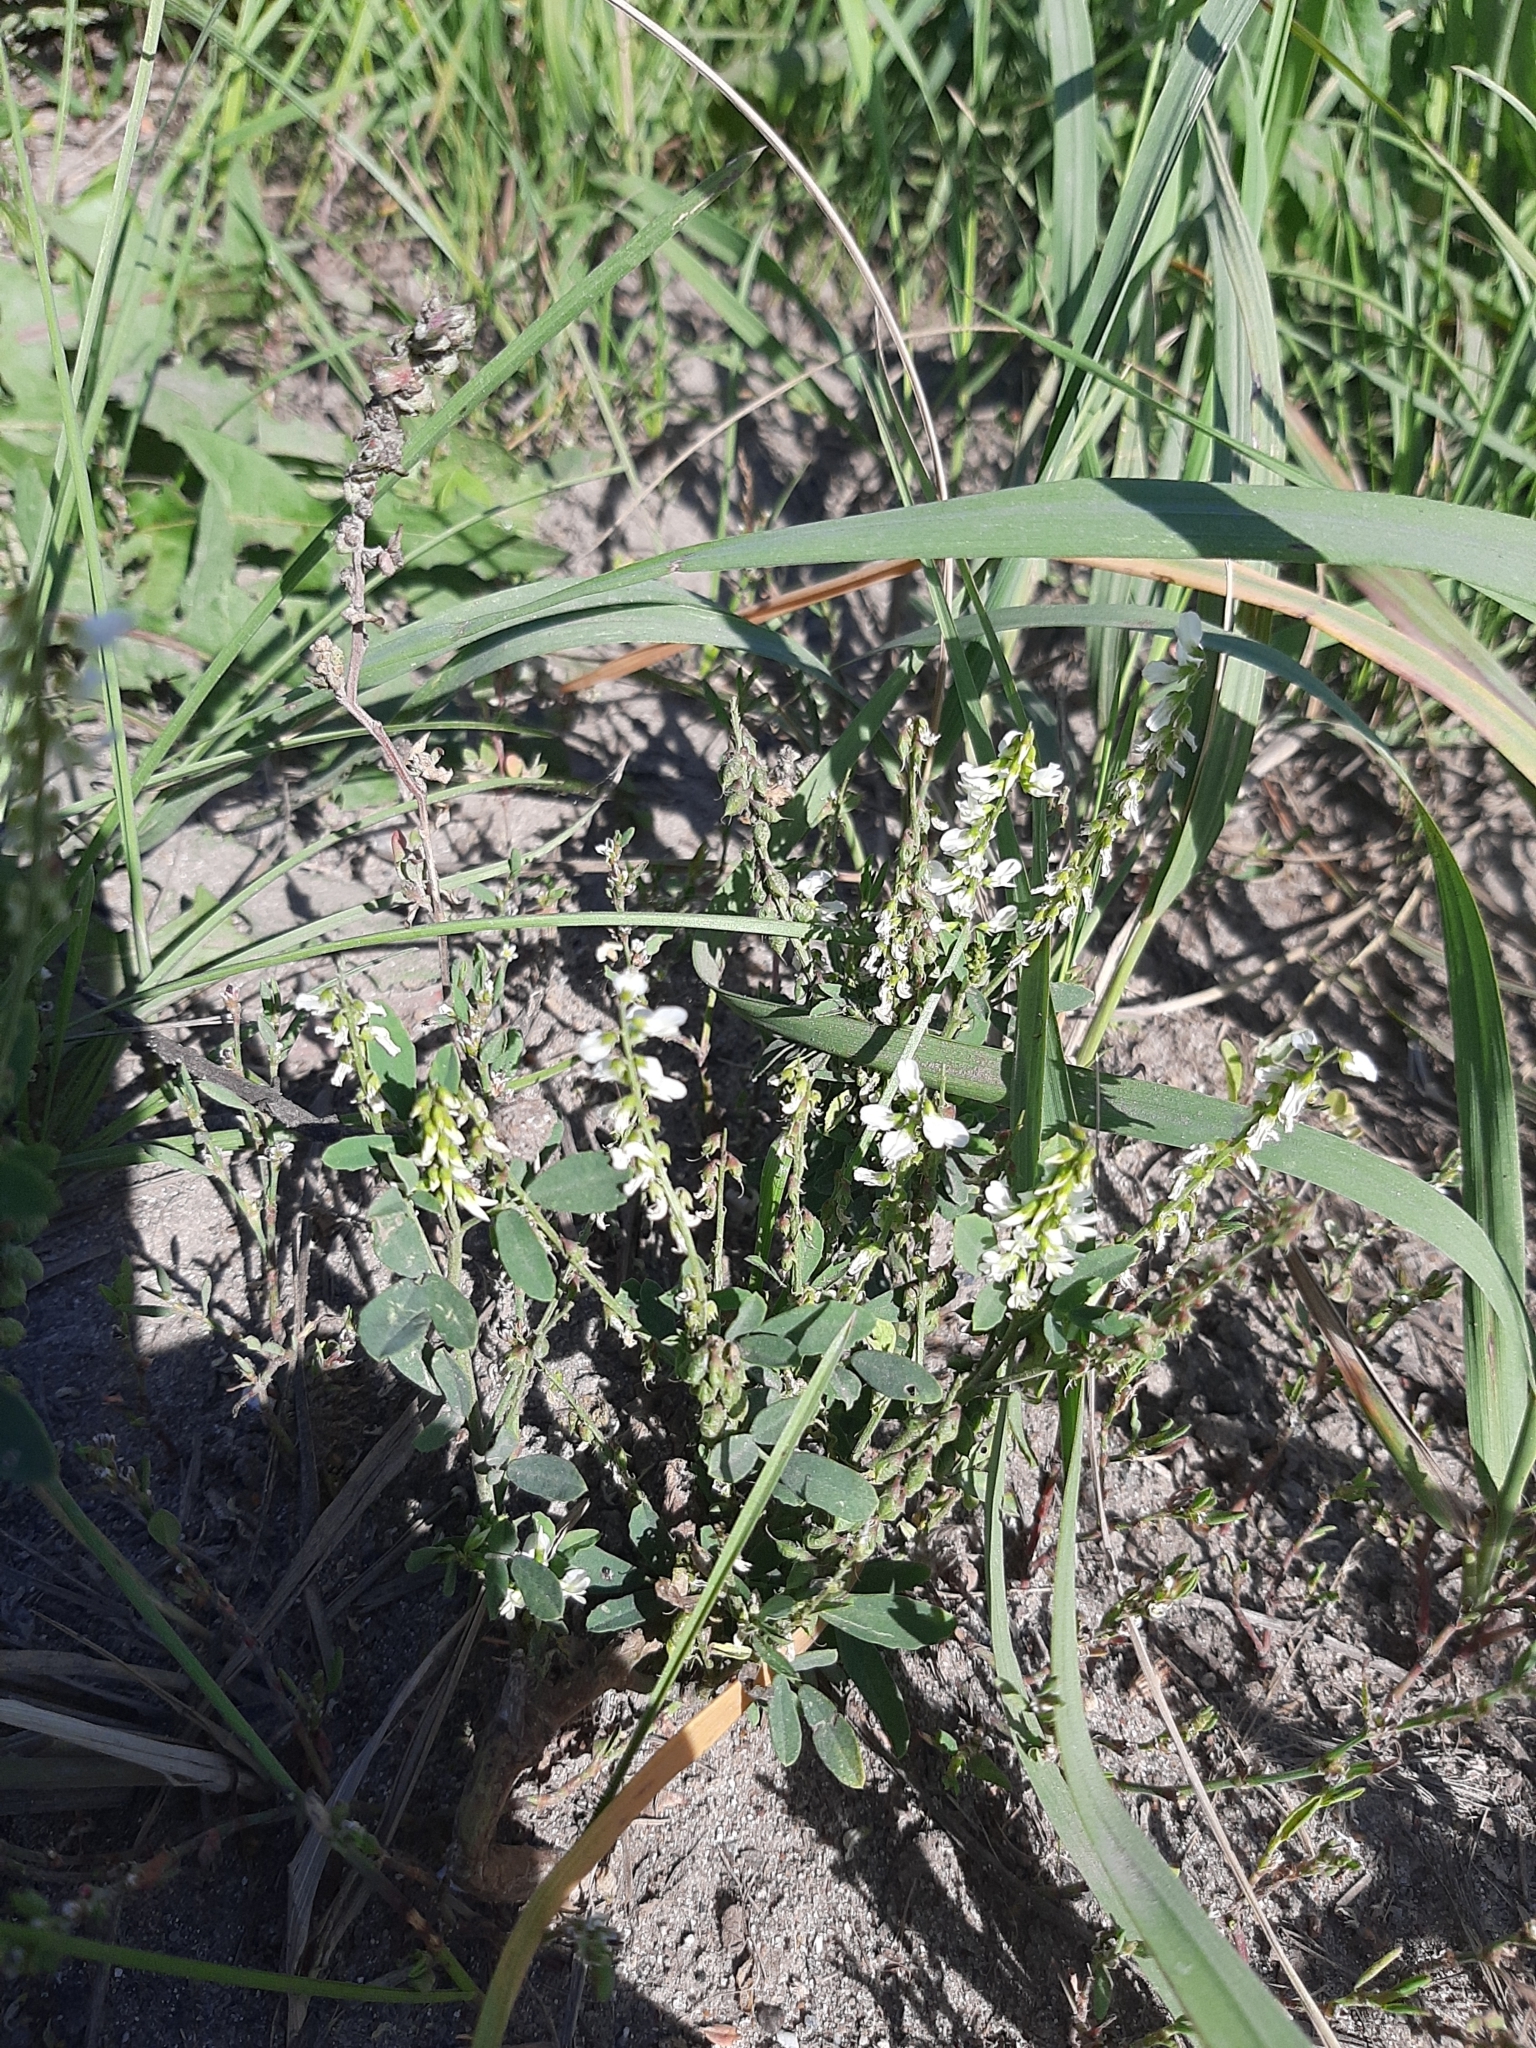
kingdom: Plantae
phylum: Tracheophyta
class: Magnoliopsida
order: Fabales
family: Fabaceae
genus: Melilotus
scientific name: Melilotus albus
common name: White melilot
